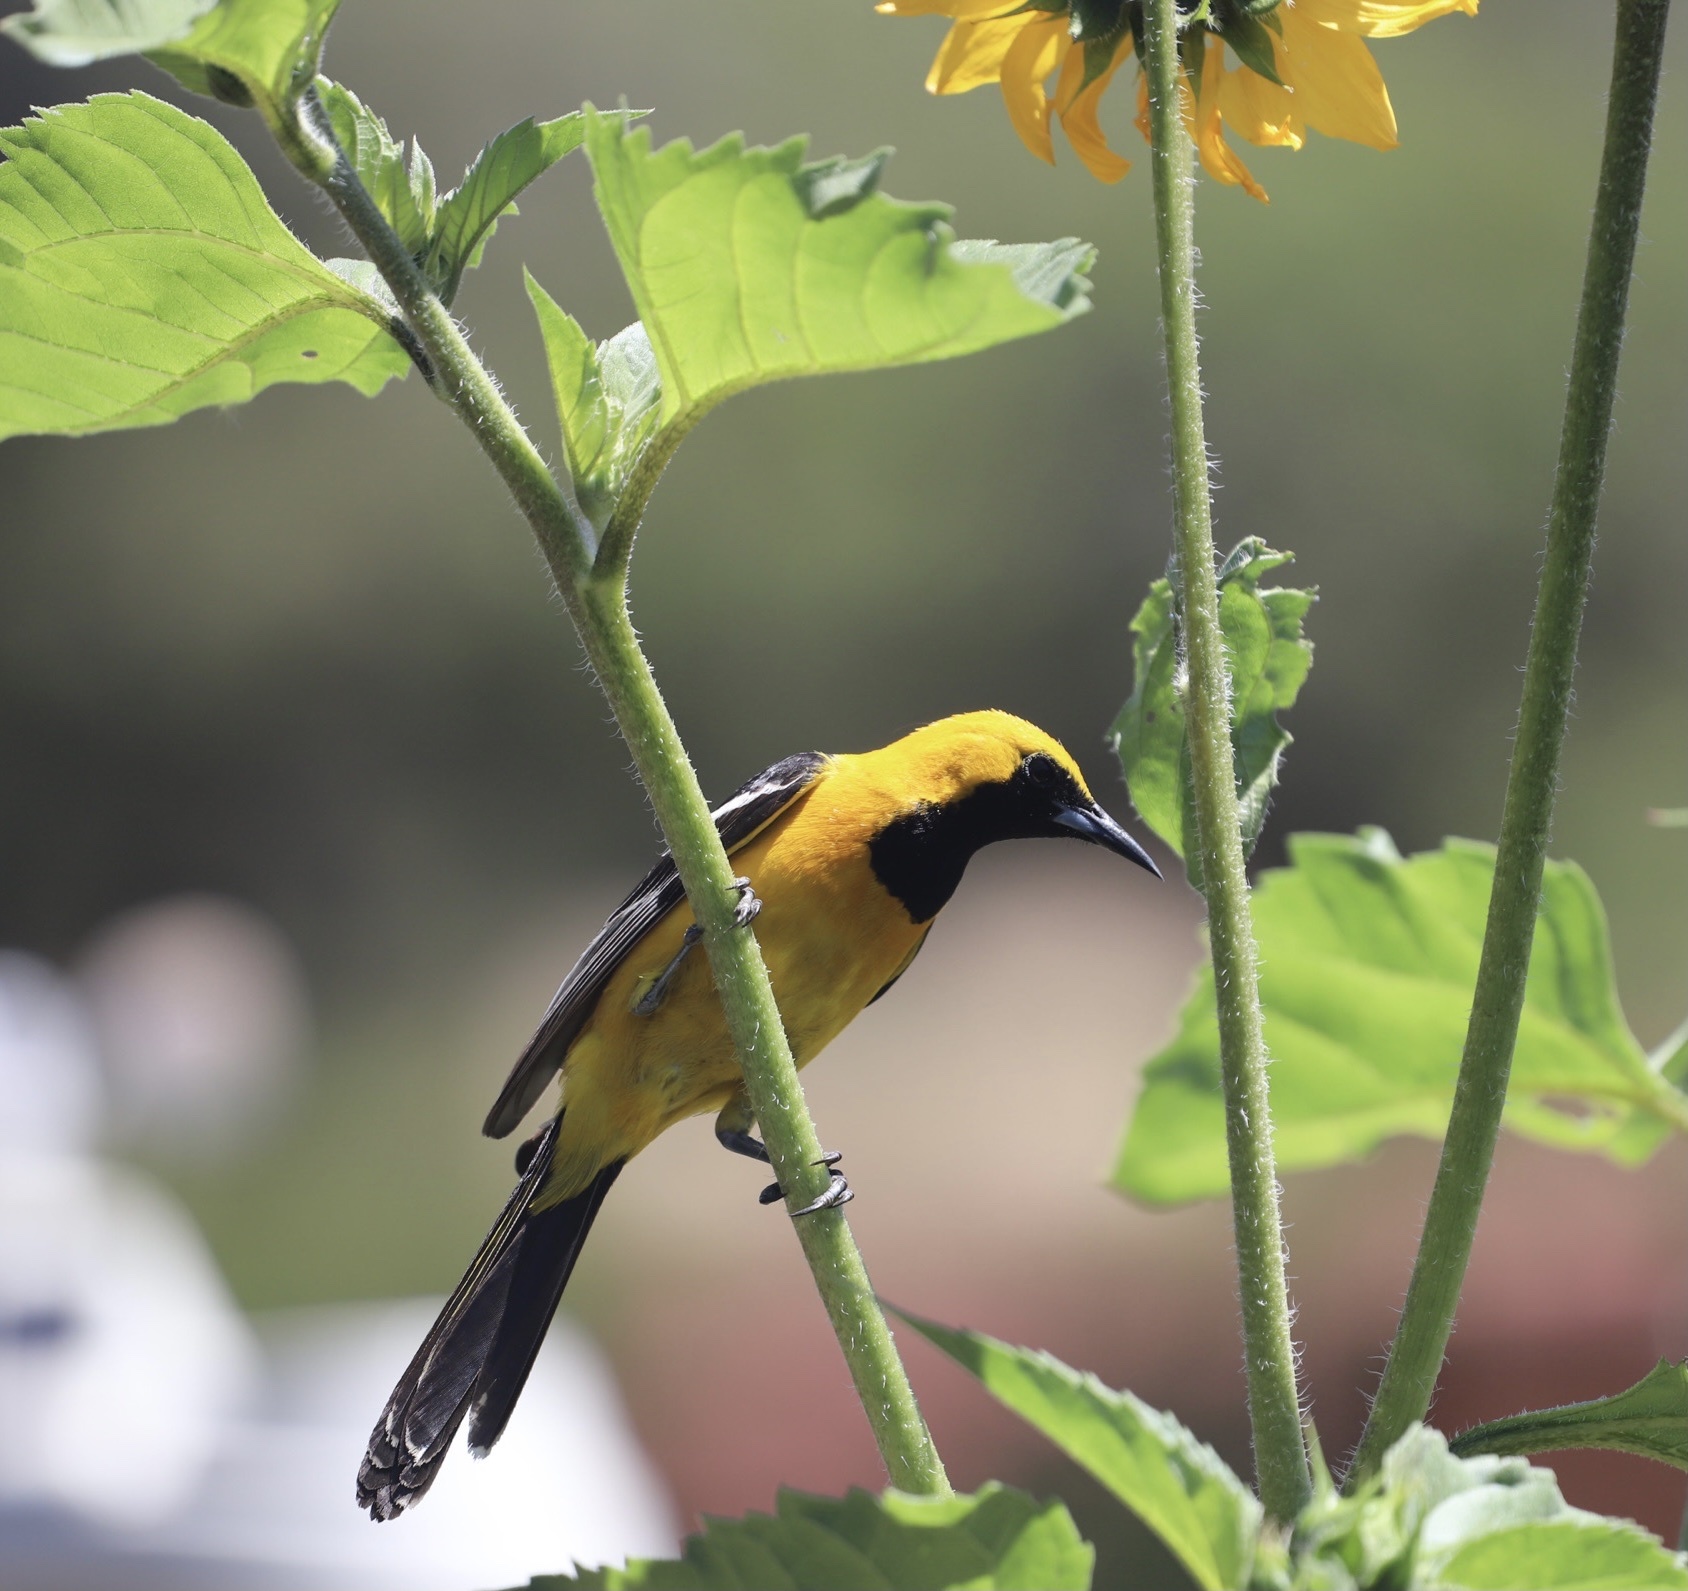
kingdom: Animalia
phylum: Chordata
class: Aves
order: Passeriformes
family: Icteridae
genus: Icterus
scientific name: Icterus cucullatus
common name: Hooded oriole
